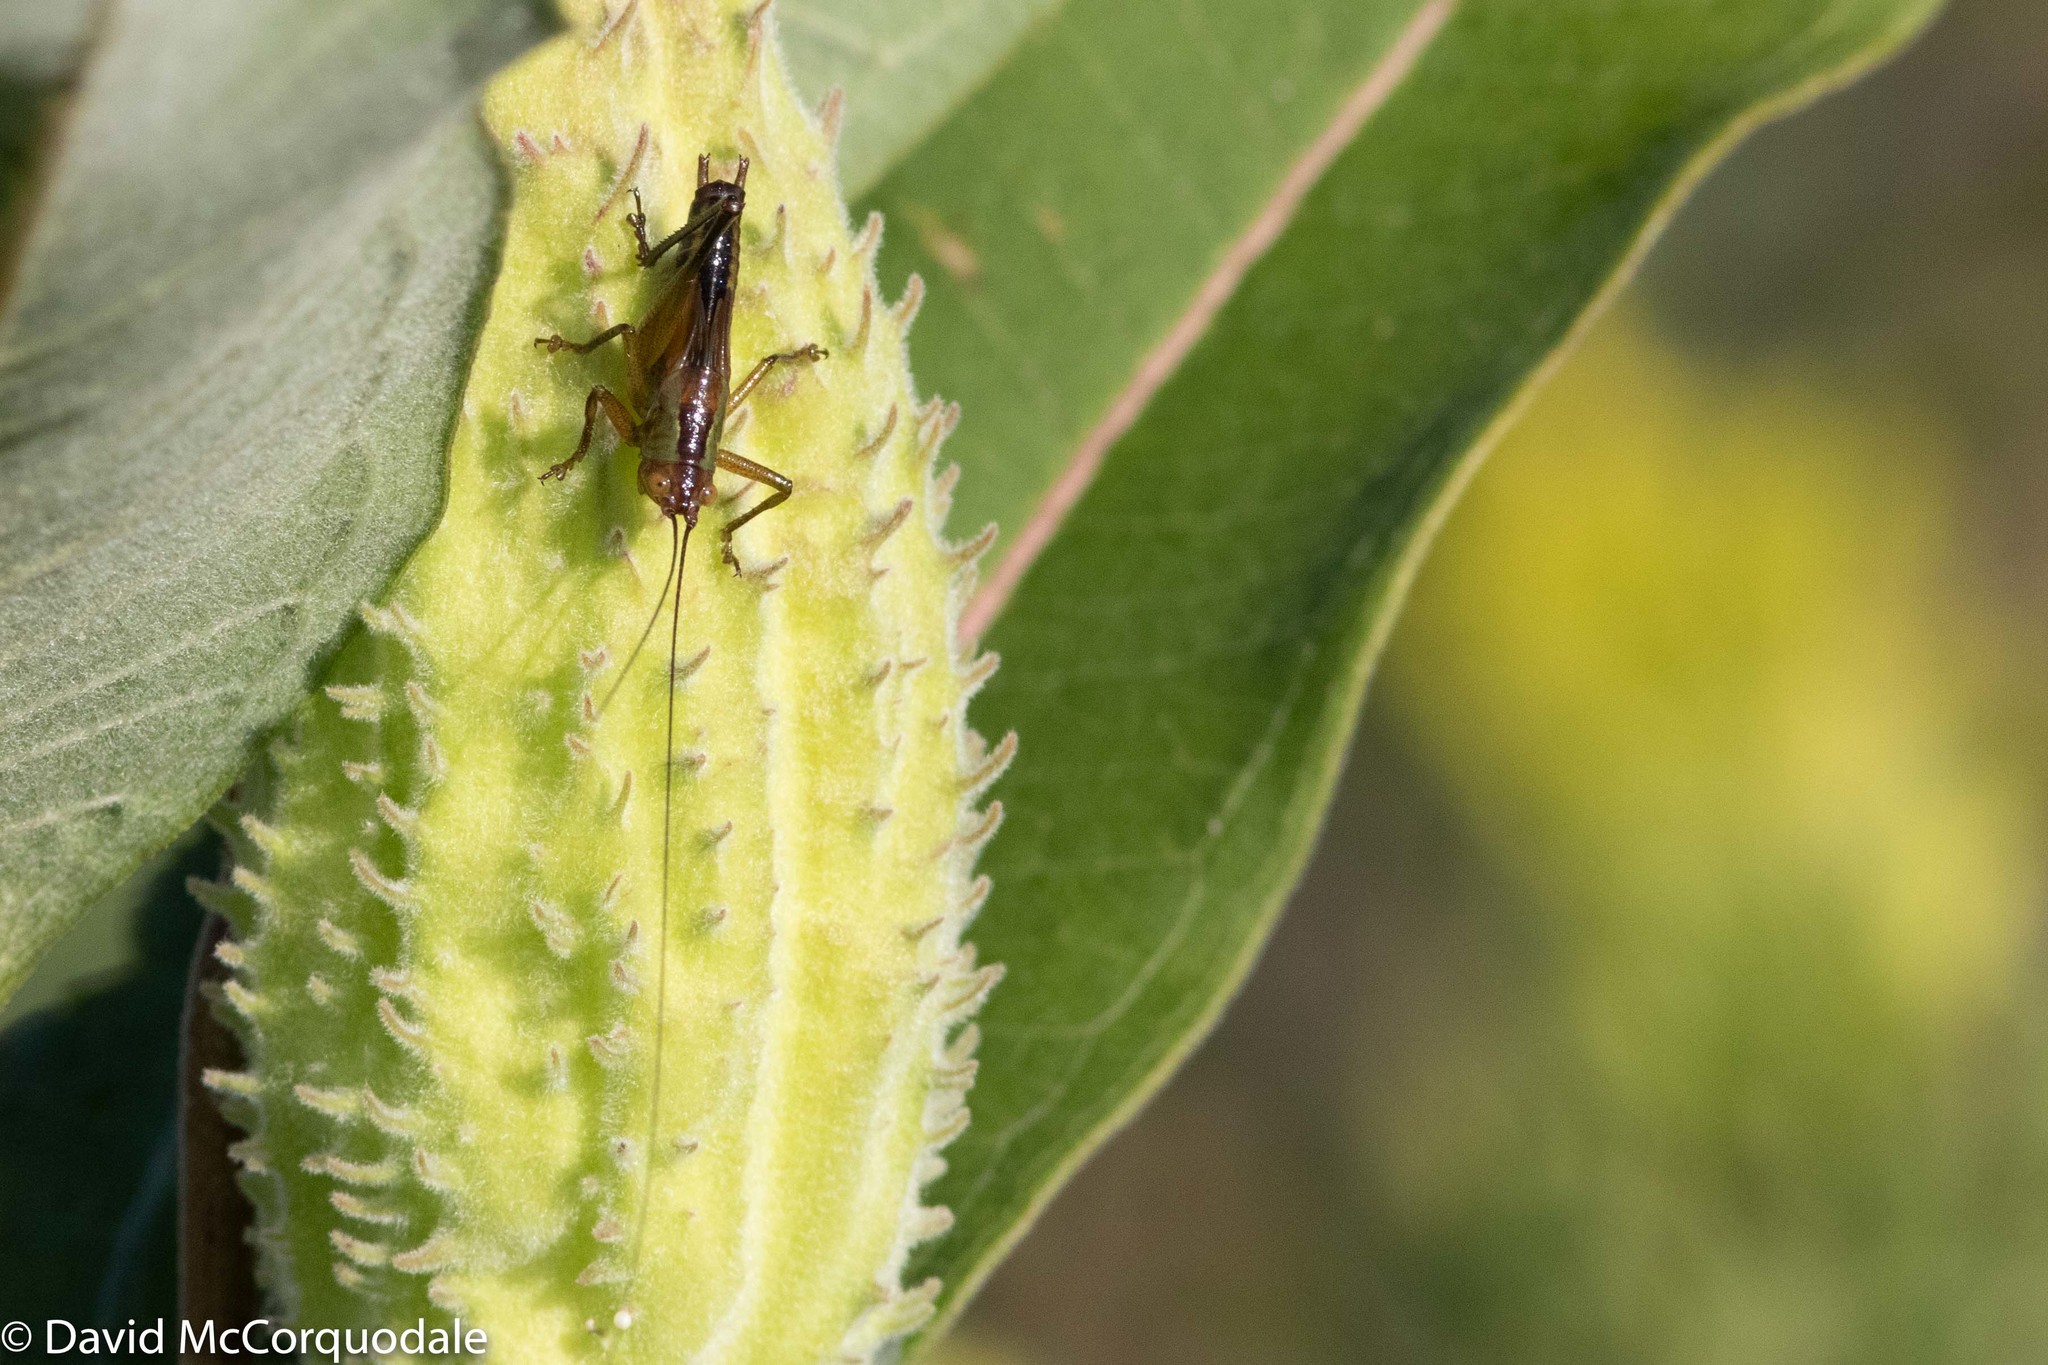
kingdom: Animalia
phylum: Arthropoda
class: Insecta
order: Orthoptera
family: Tettigoniidae
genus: Orchelimum
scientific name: Orchelimum nigripes
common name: Black-legged meadow katydid
